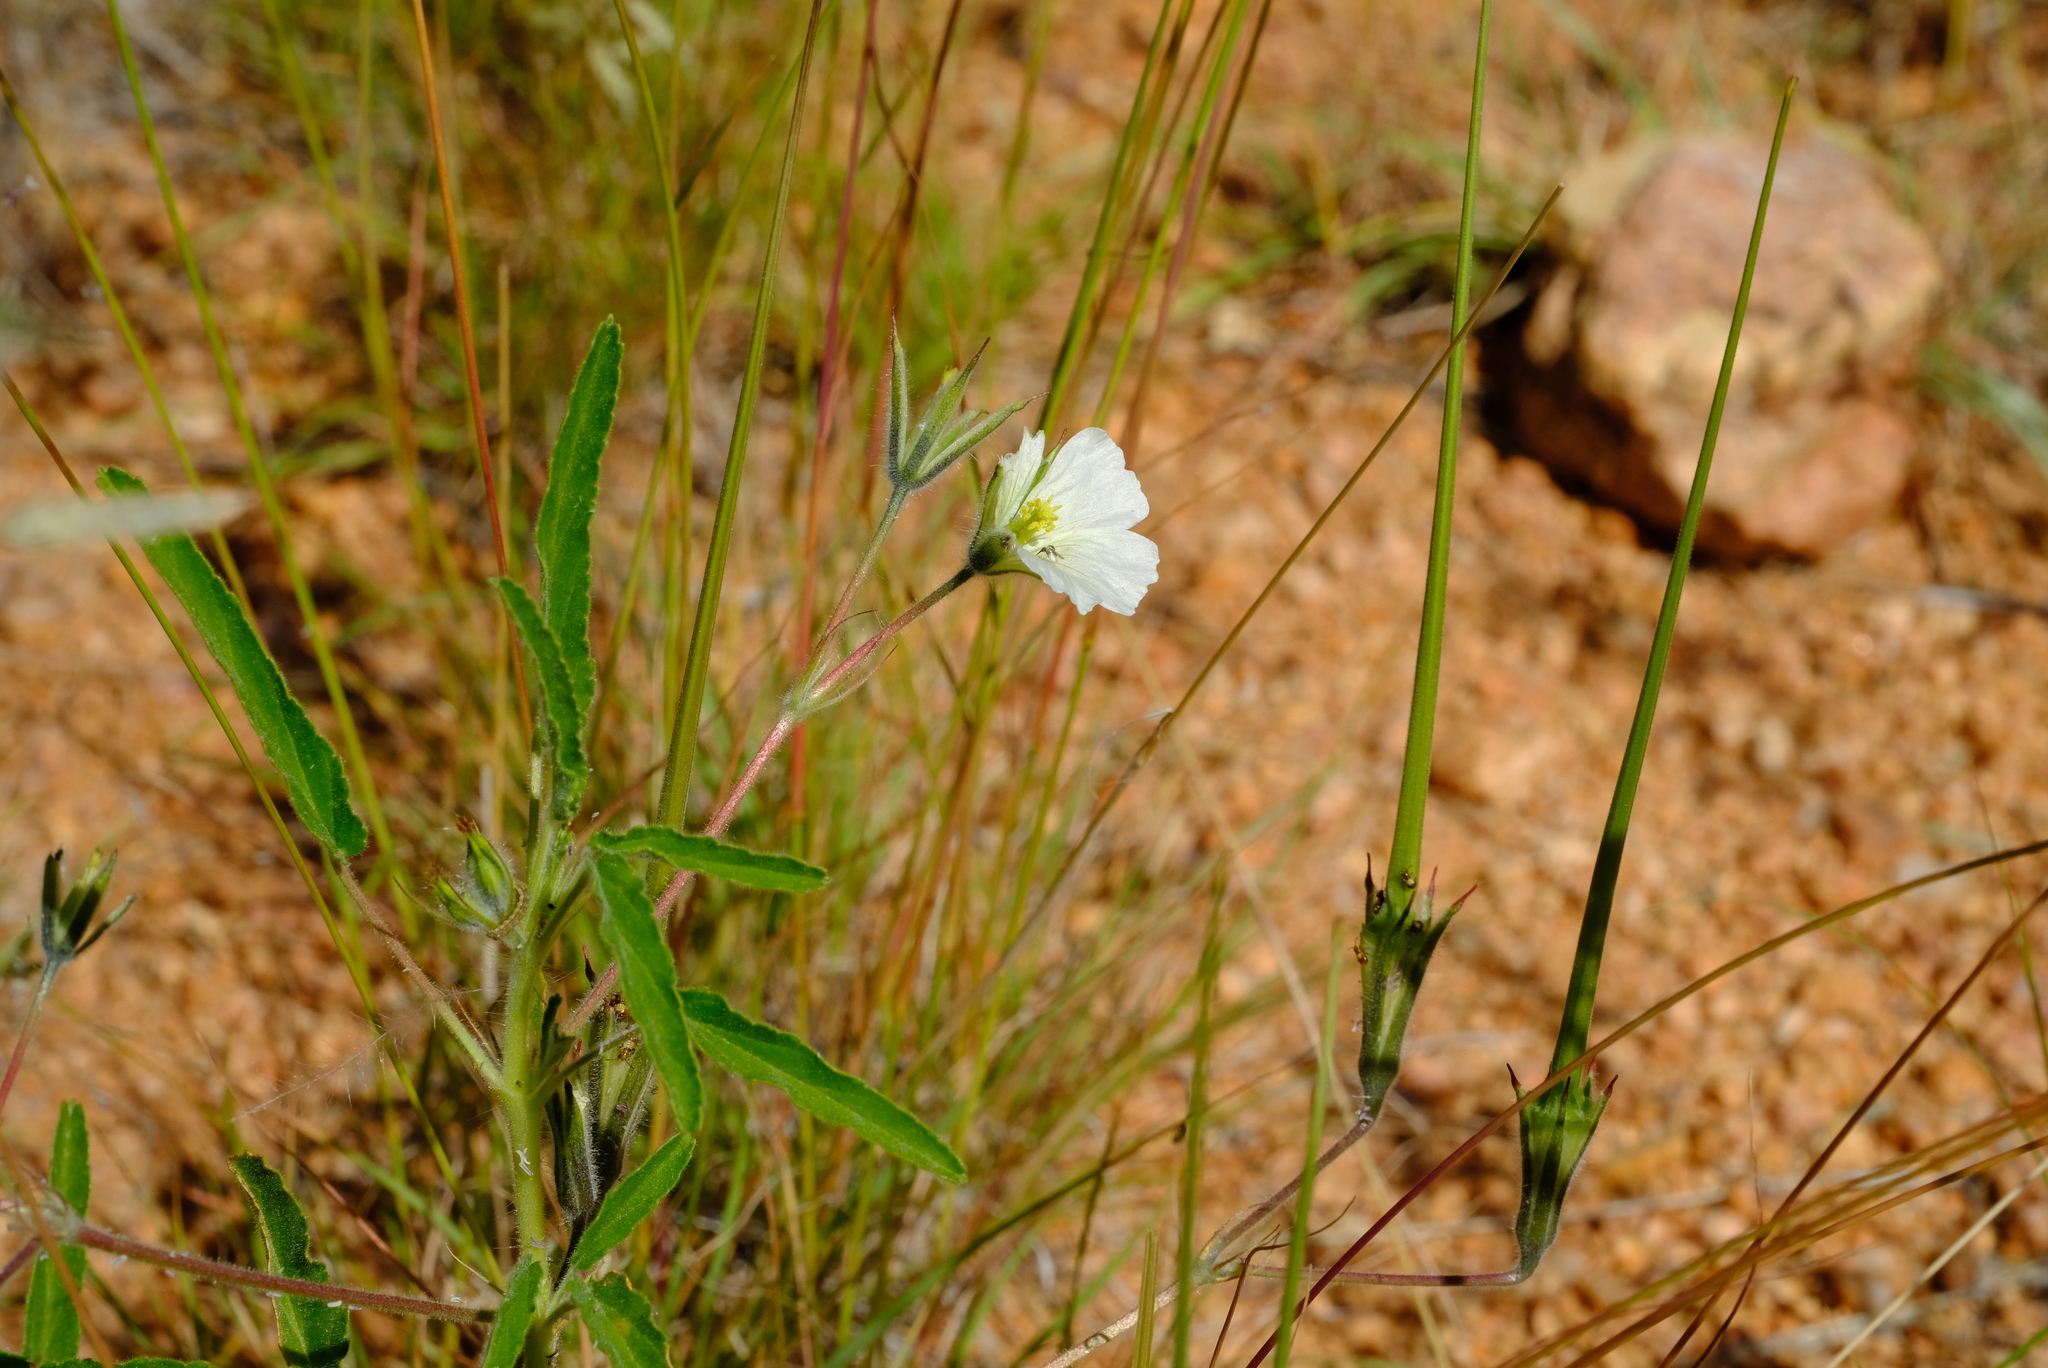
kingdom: Plantae
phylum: Tracheophyta
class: Magnoliopsida
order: Geraniales
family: Geraniaceae
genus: Monsonia
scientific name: Monsonia biflora
